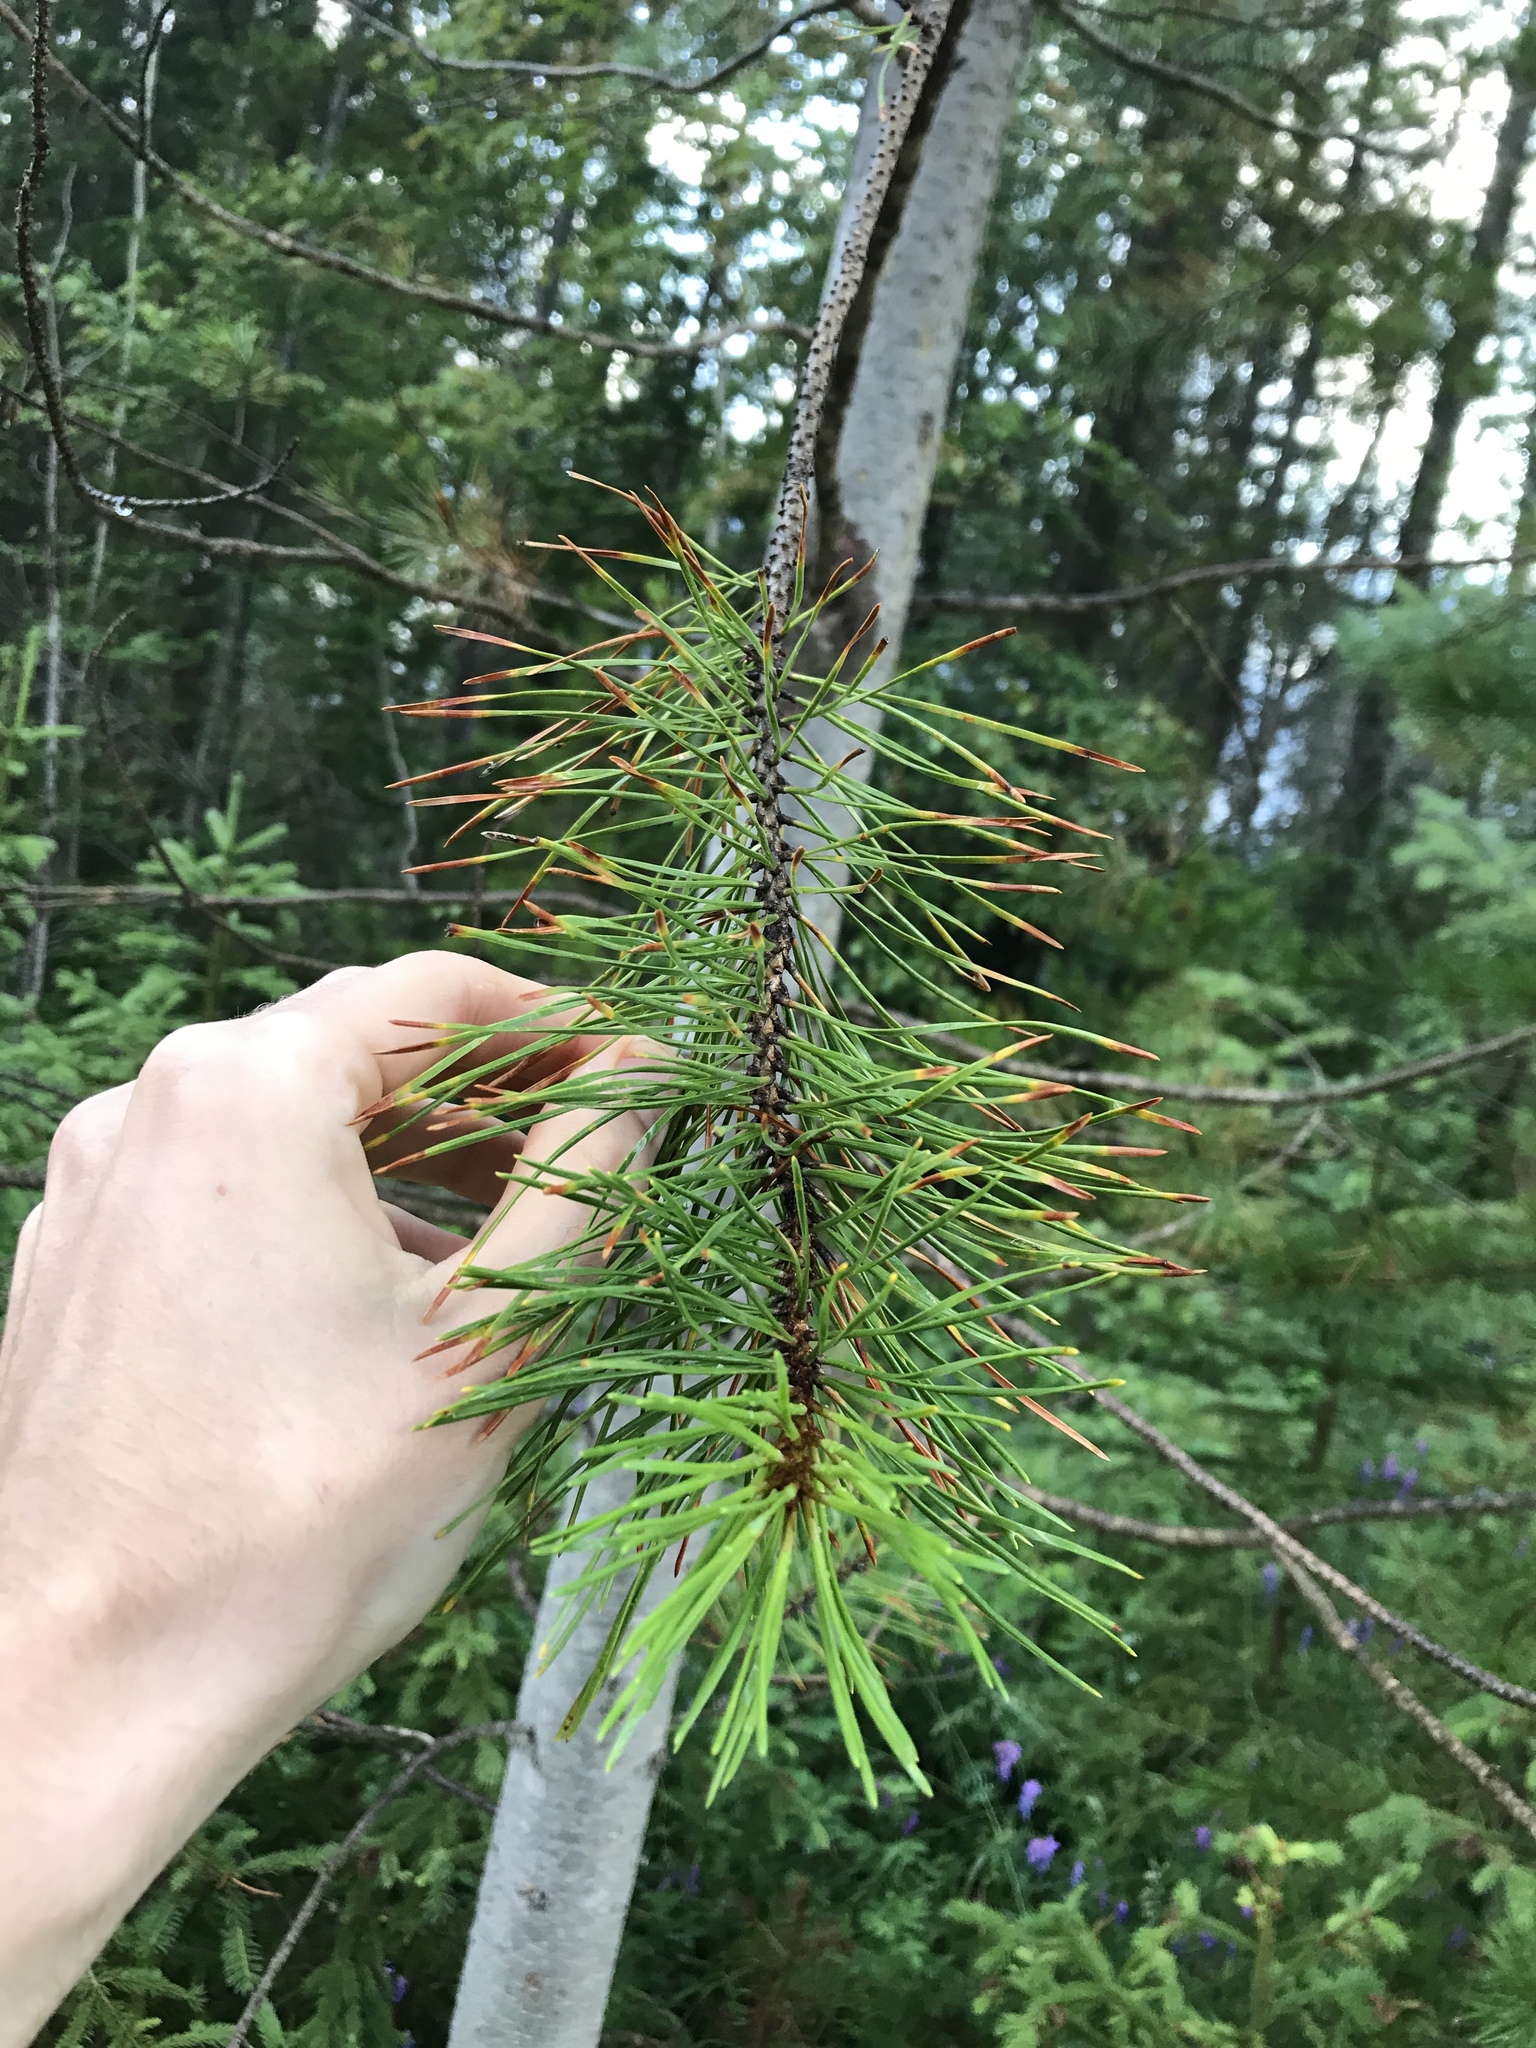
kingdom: Plantae
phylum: Tracheophyta
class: Pinopsida
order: Pinales
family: Pinaceae
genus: Pinus
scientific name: Pinus contorta
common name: Lodgepole pine
